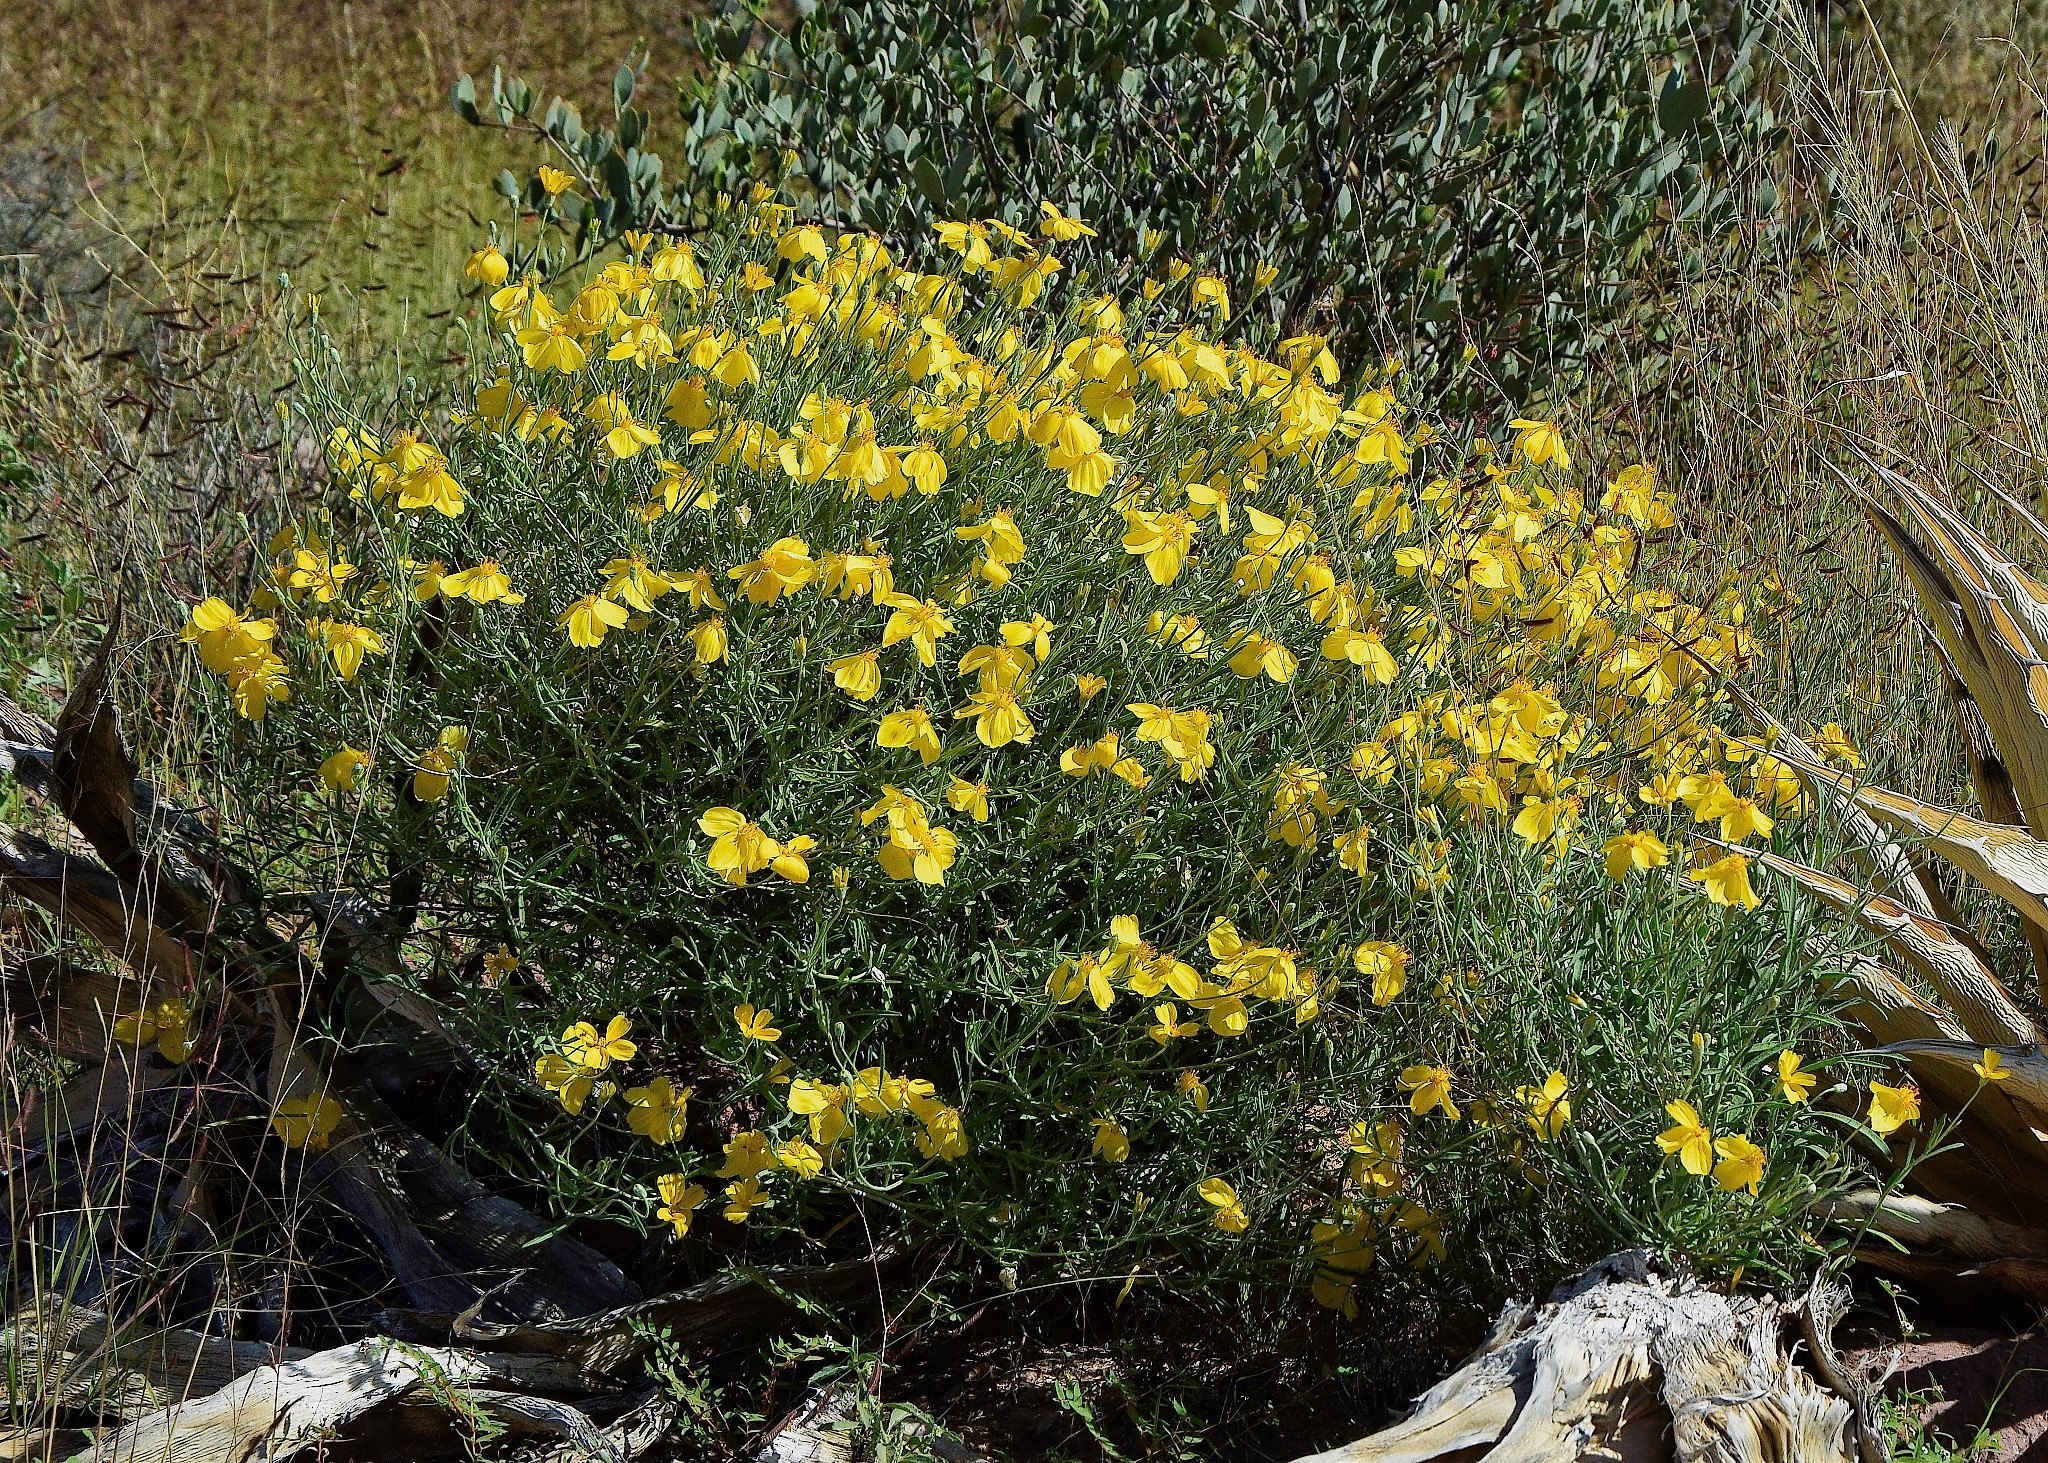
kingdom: Plantae
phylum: Tracheophyta
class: Magnoliopsida
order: Asterales
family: Asteraceae
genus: Psilostrophe
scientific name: Psilostrophe cooperi
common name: White-stem paper-flower
